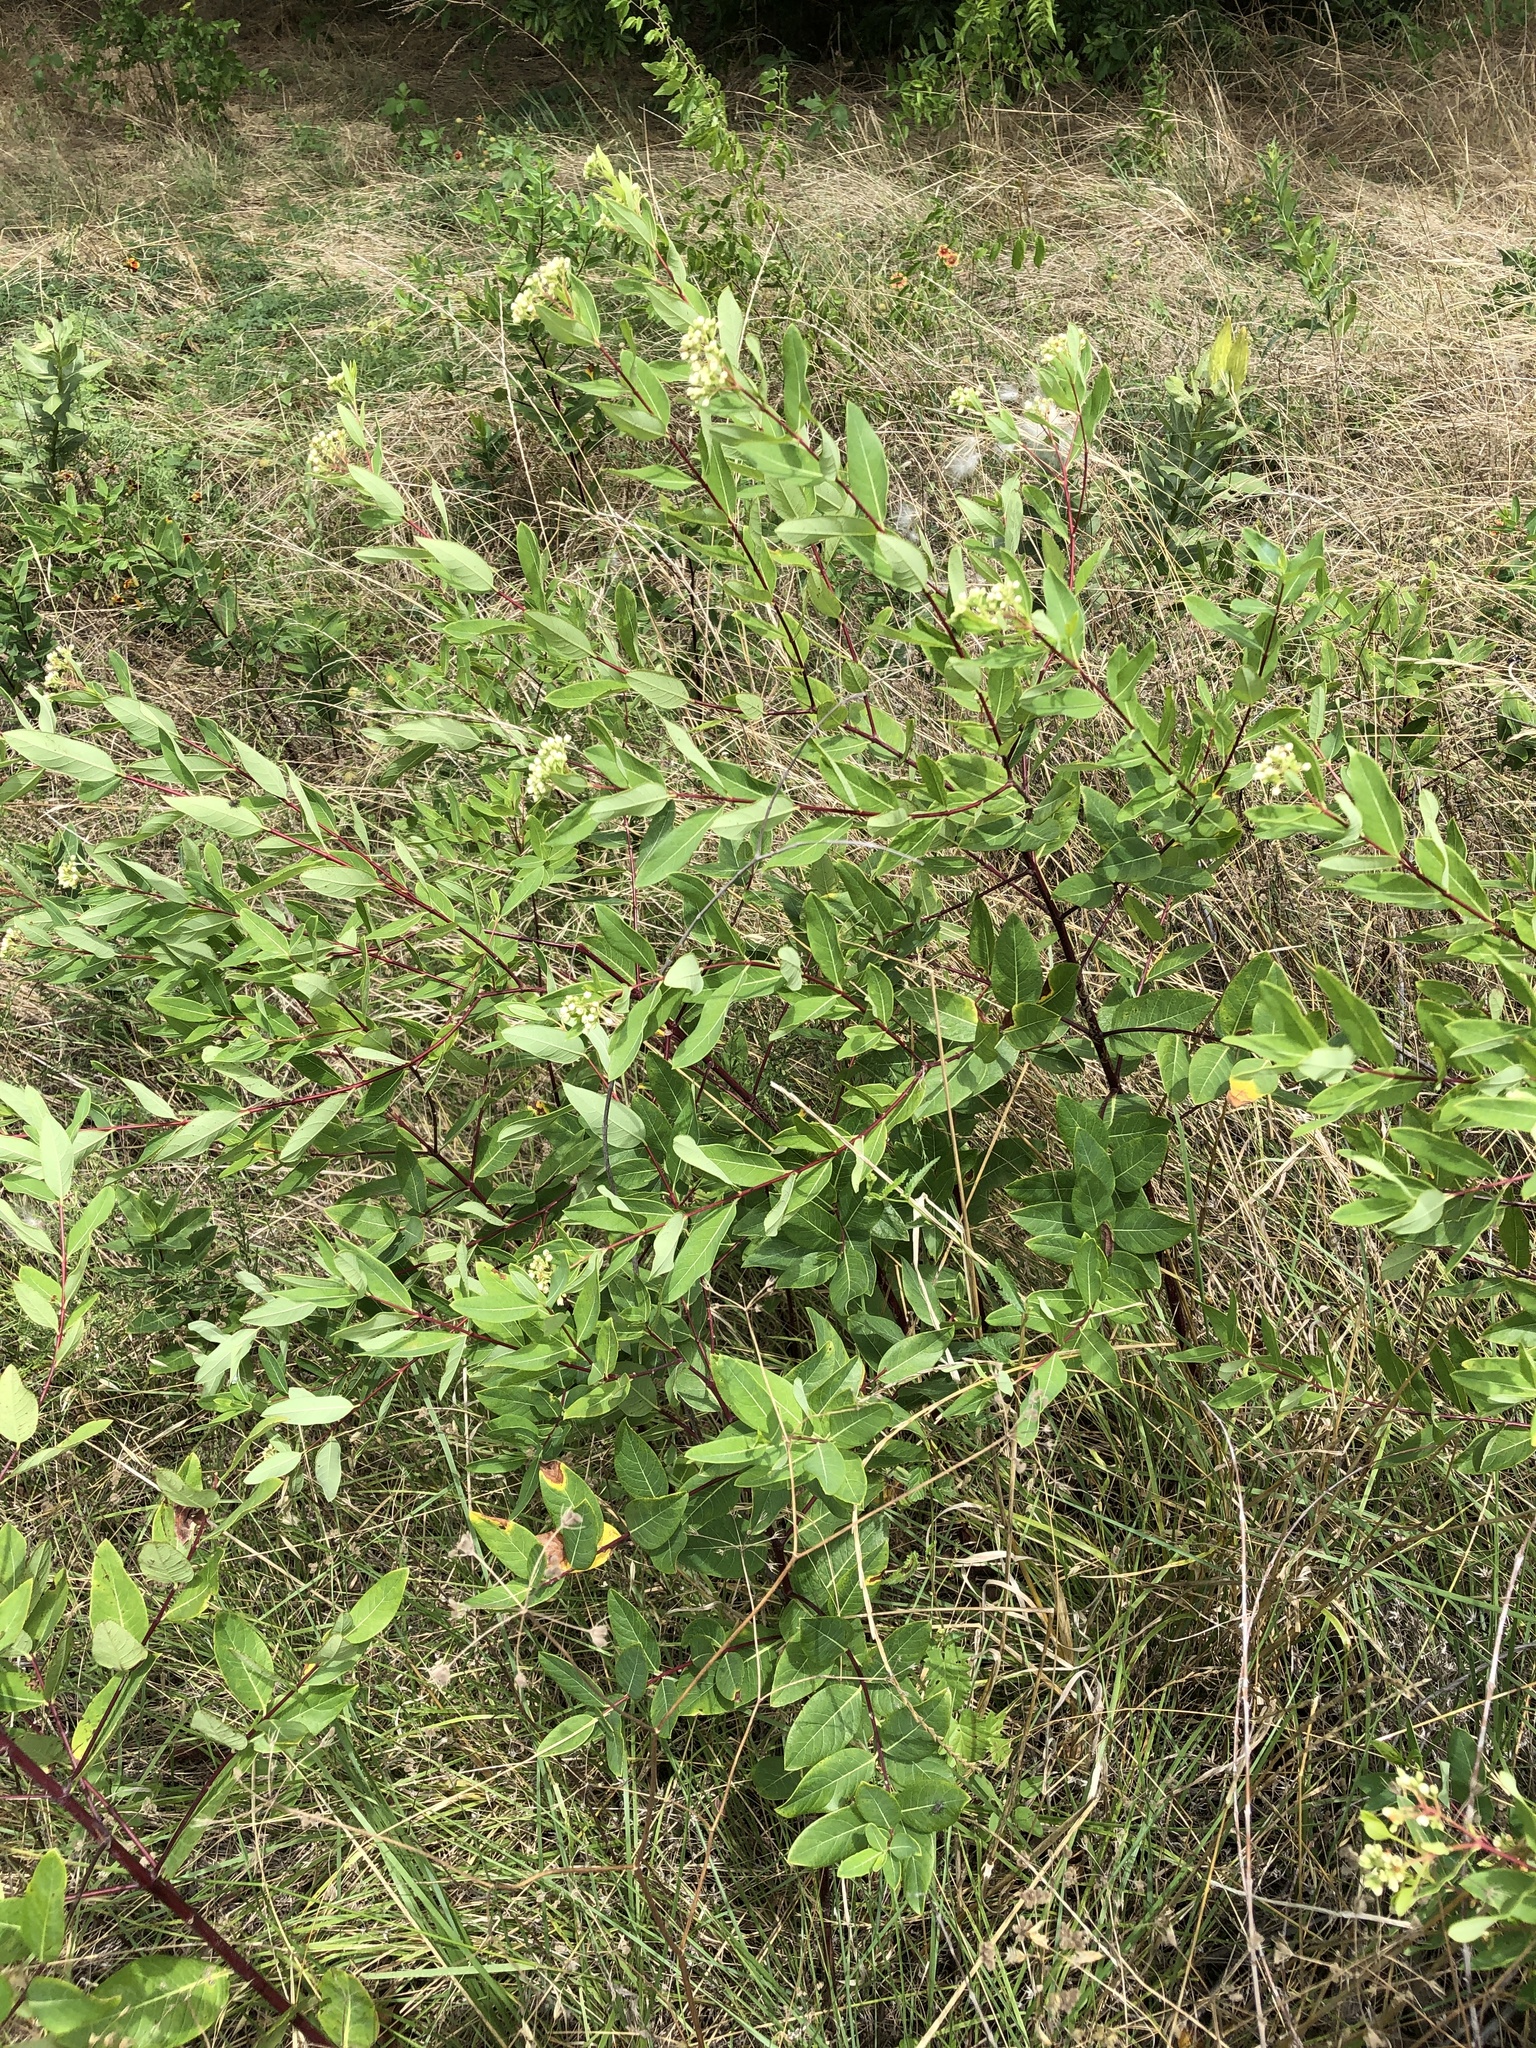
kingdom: Plantae
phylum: Tracheophyta
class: Magnoliopsida
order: Gentianales
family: Apocynaceae
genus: Apocynum
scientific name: Apocynum cannabinum
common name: Hemp dogbane
